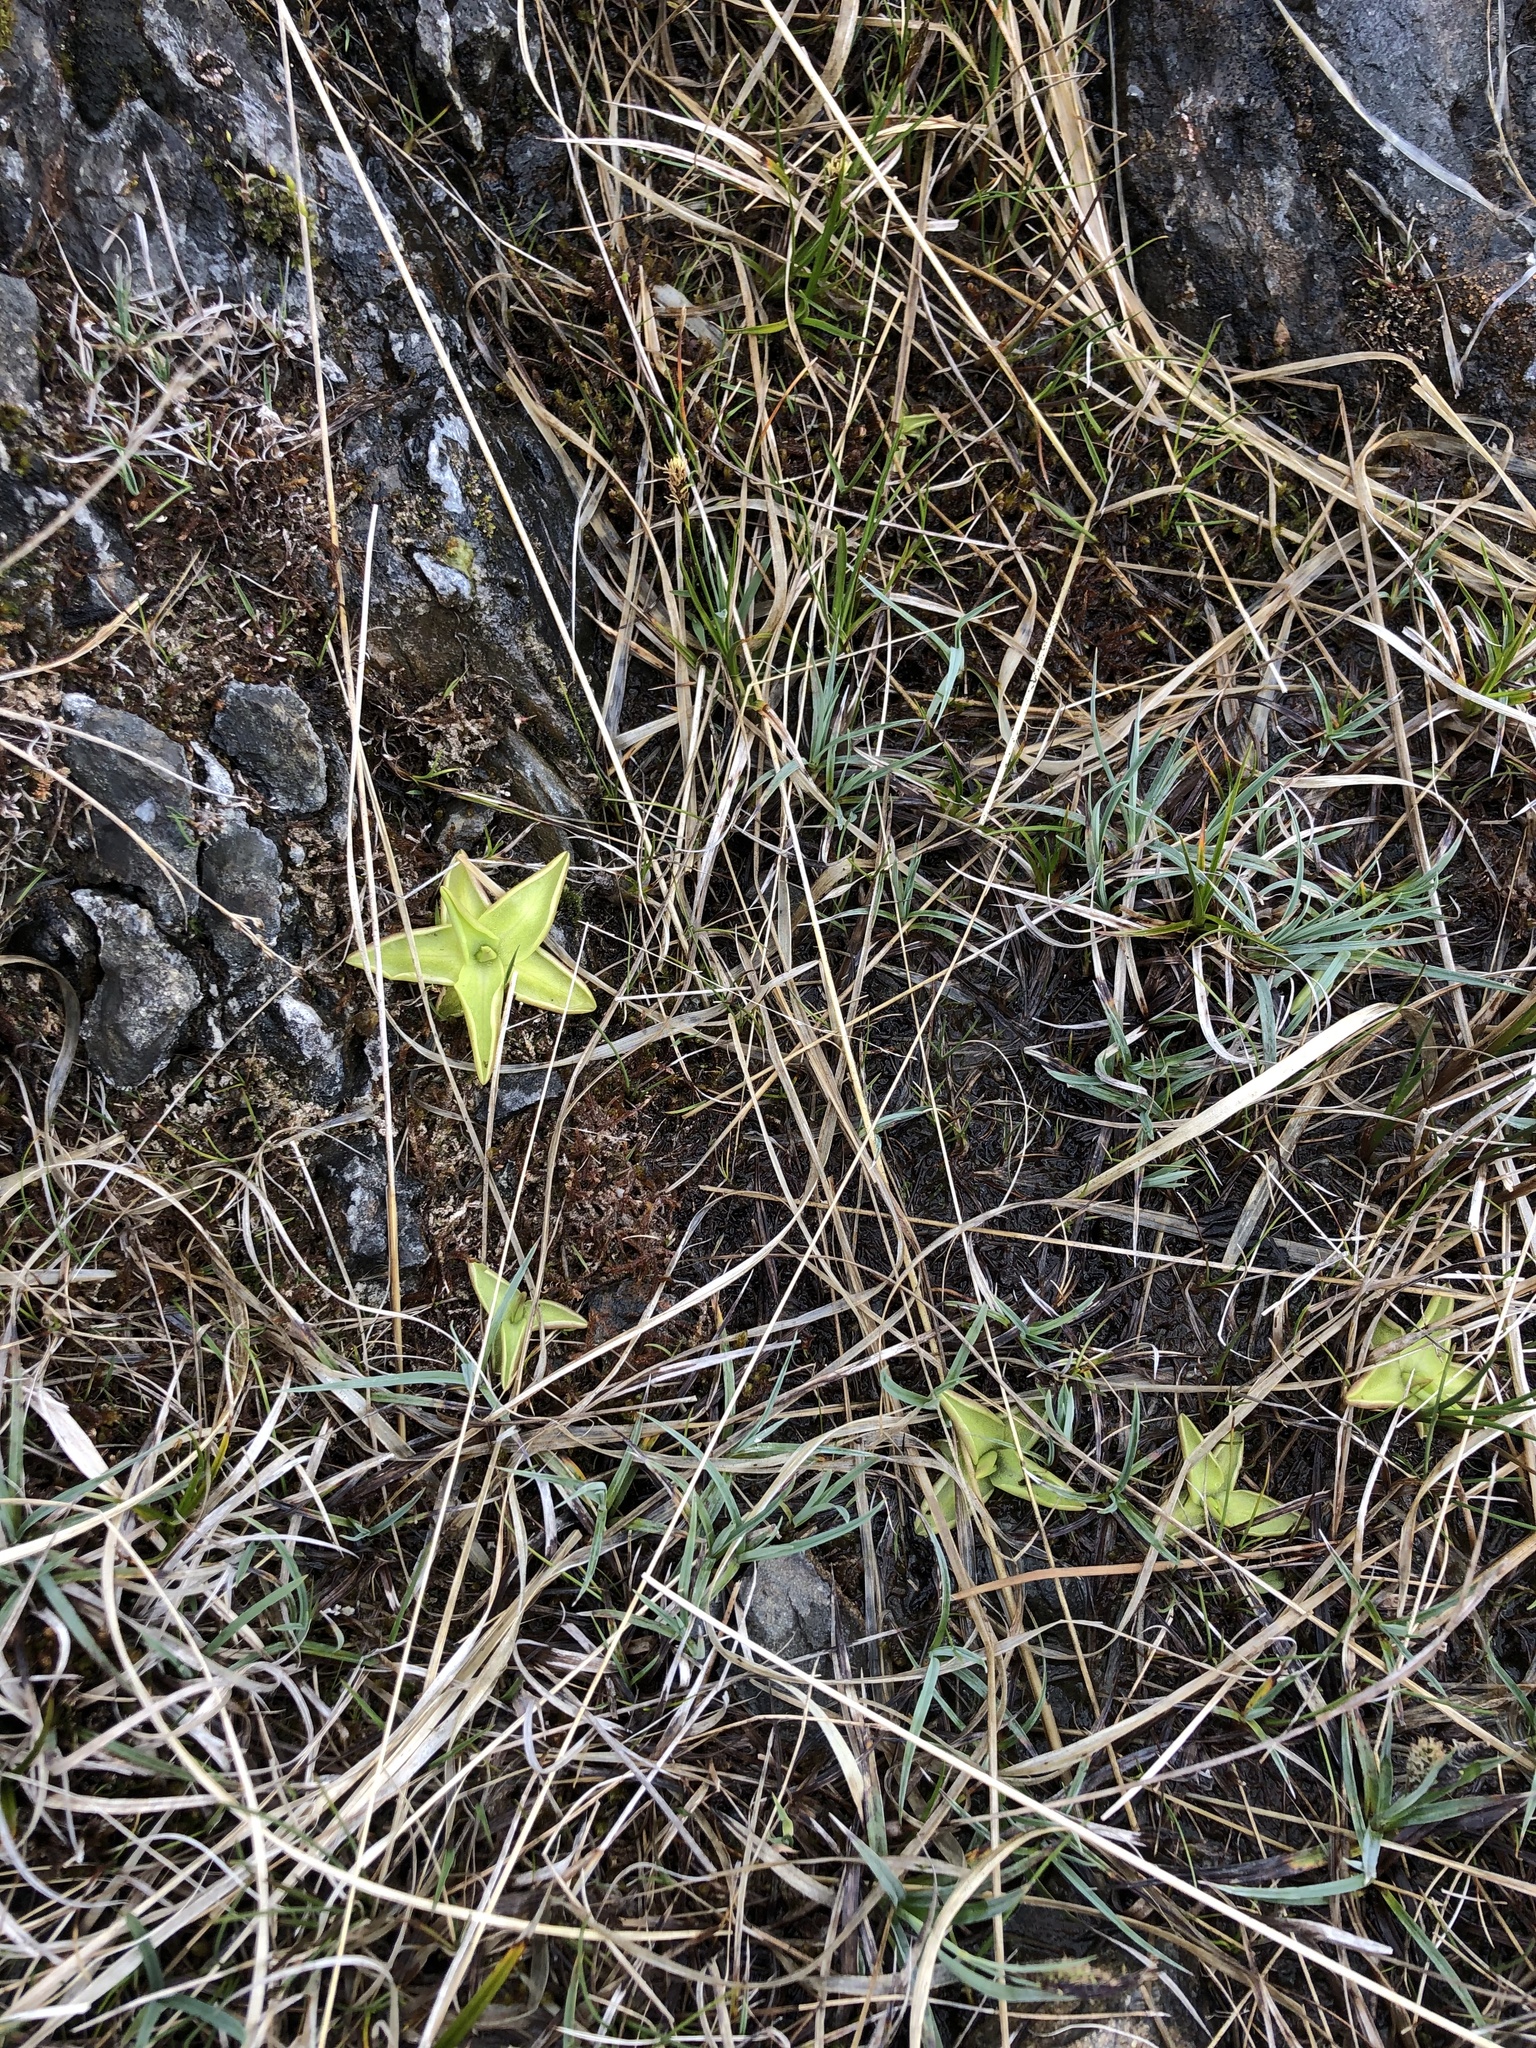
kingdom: Plantae
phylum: Tracheophyta
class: Magnoliopsida
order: Lamiales
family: Lentibulariaceae
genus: Pinguicula
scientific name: Pinguicula vulgaris
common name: Common butterwort
